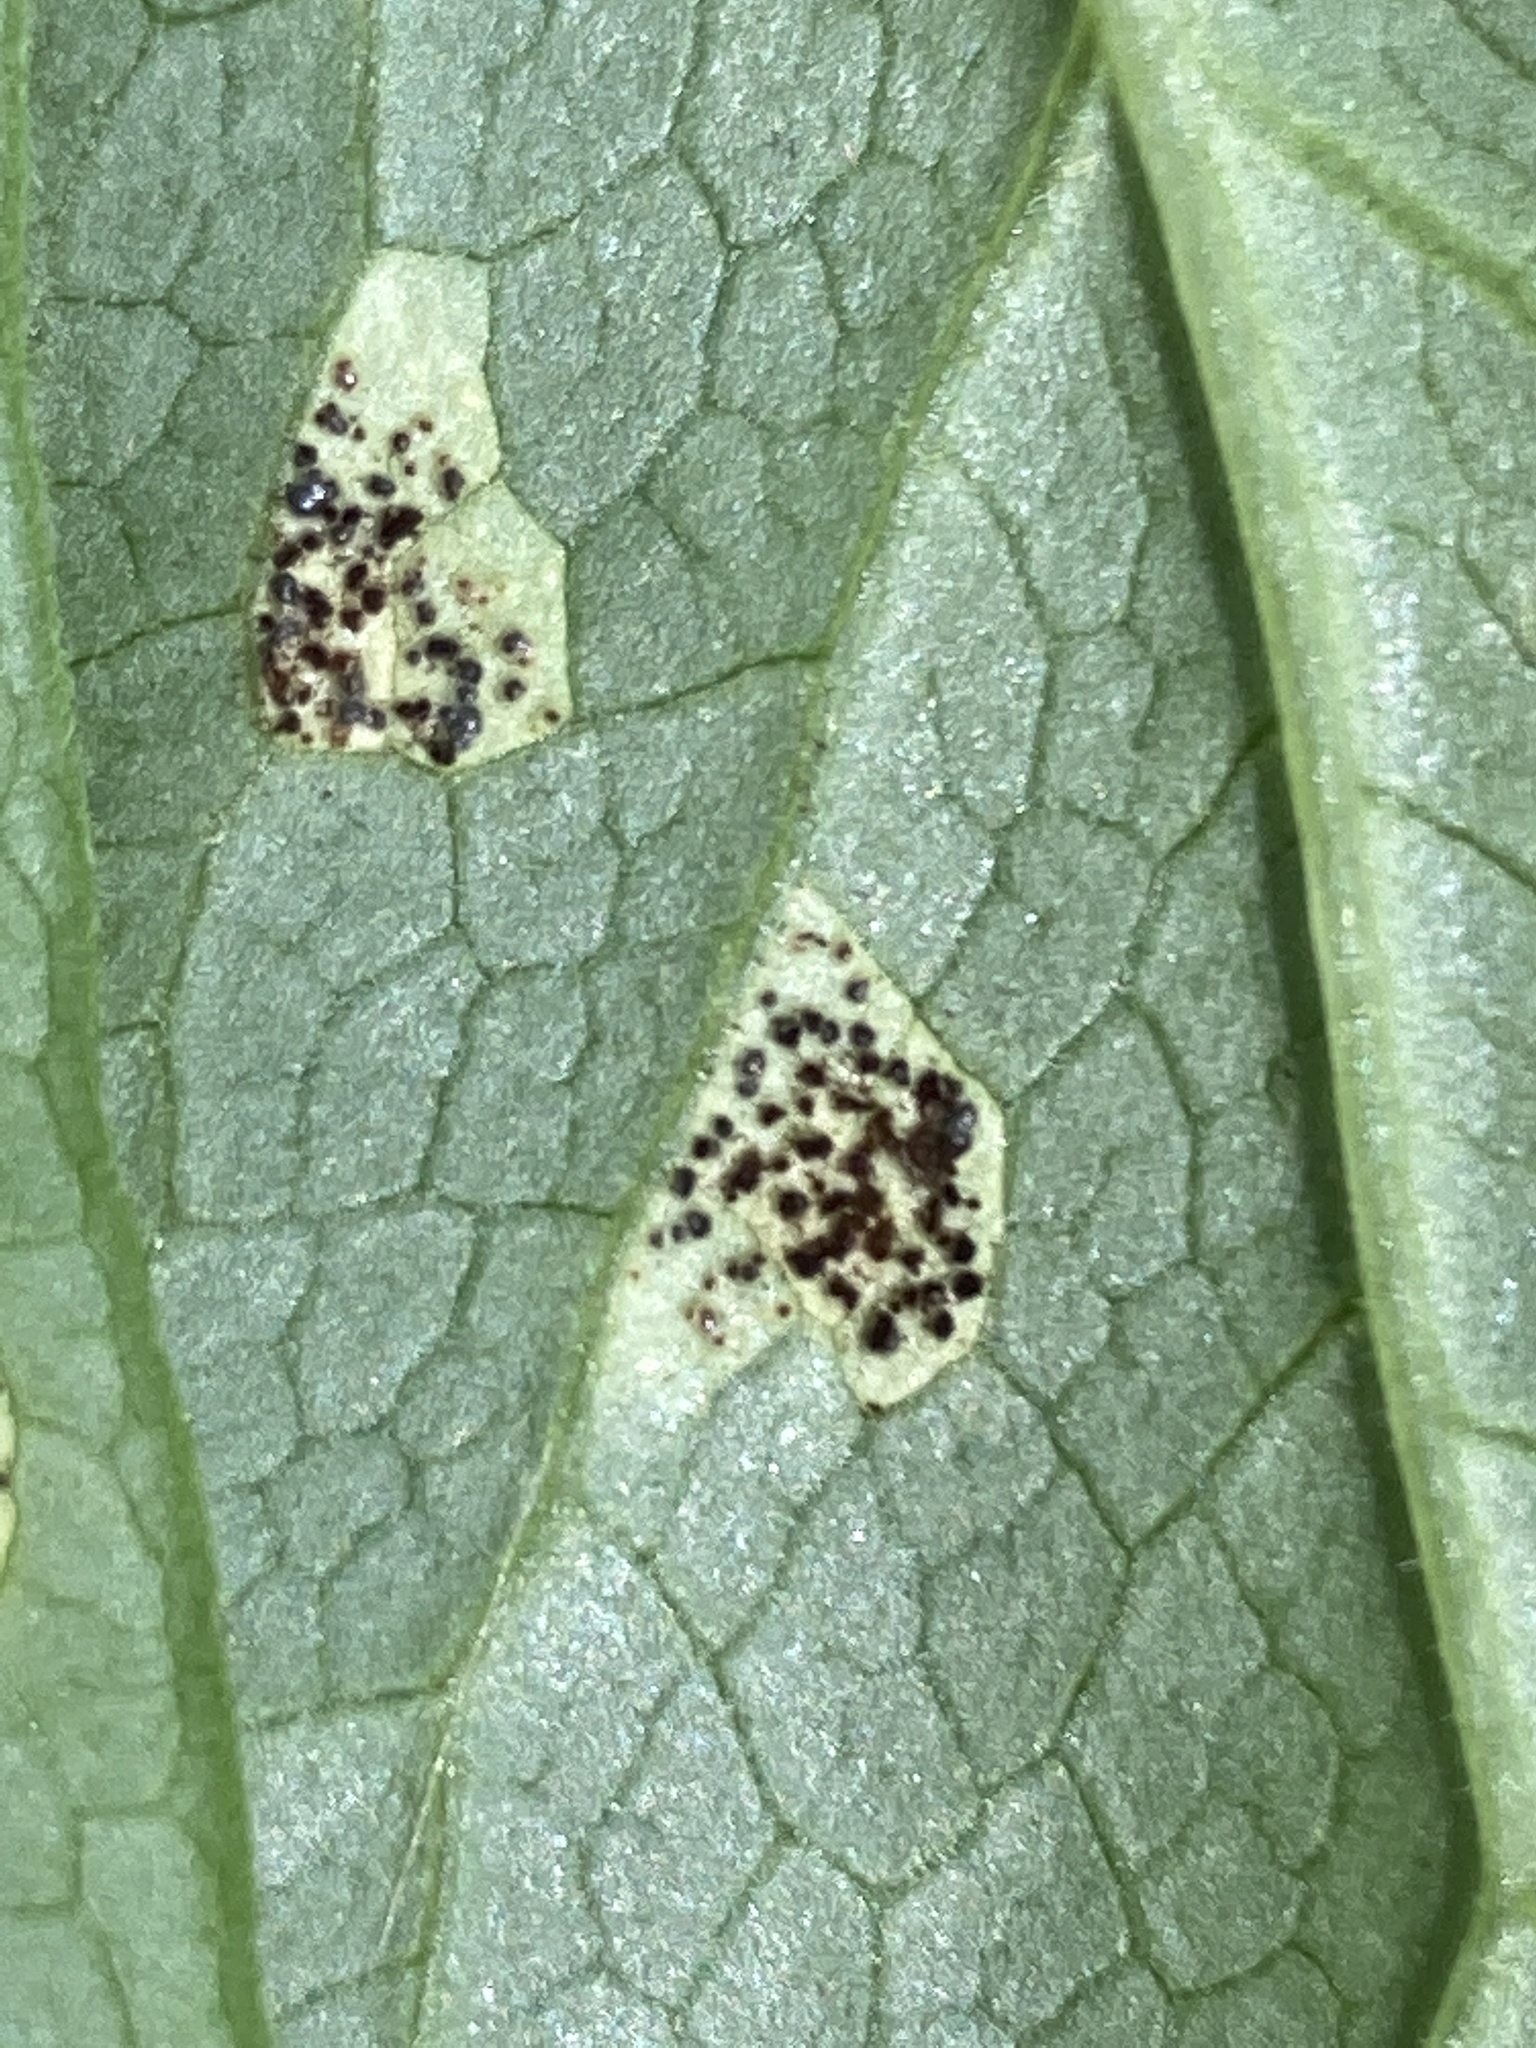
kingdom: Fungi
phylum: Basidiomycota
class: Pucciniomycetes
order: Pucciniales
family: Pucciniaceae
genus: Puccinia
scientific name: Puccinia podophylli
